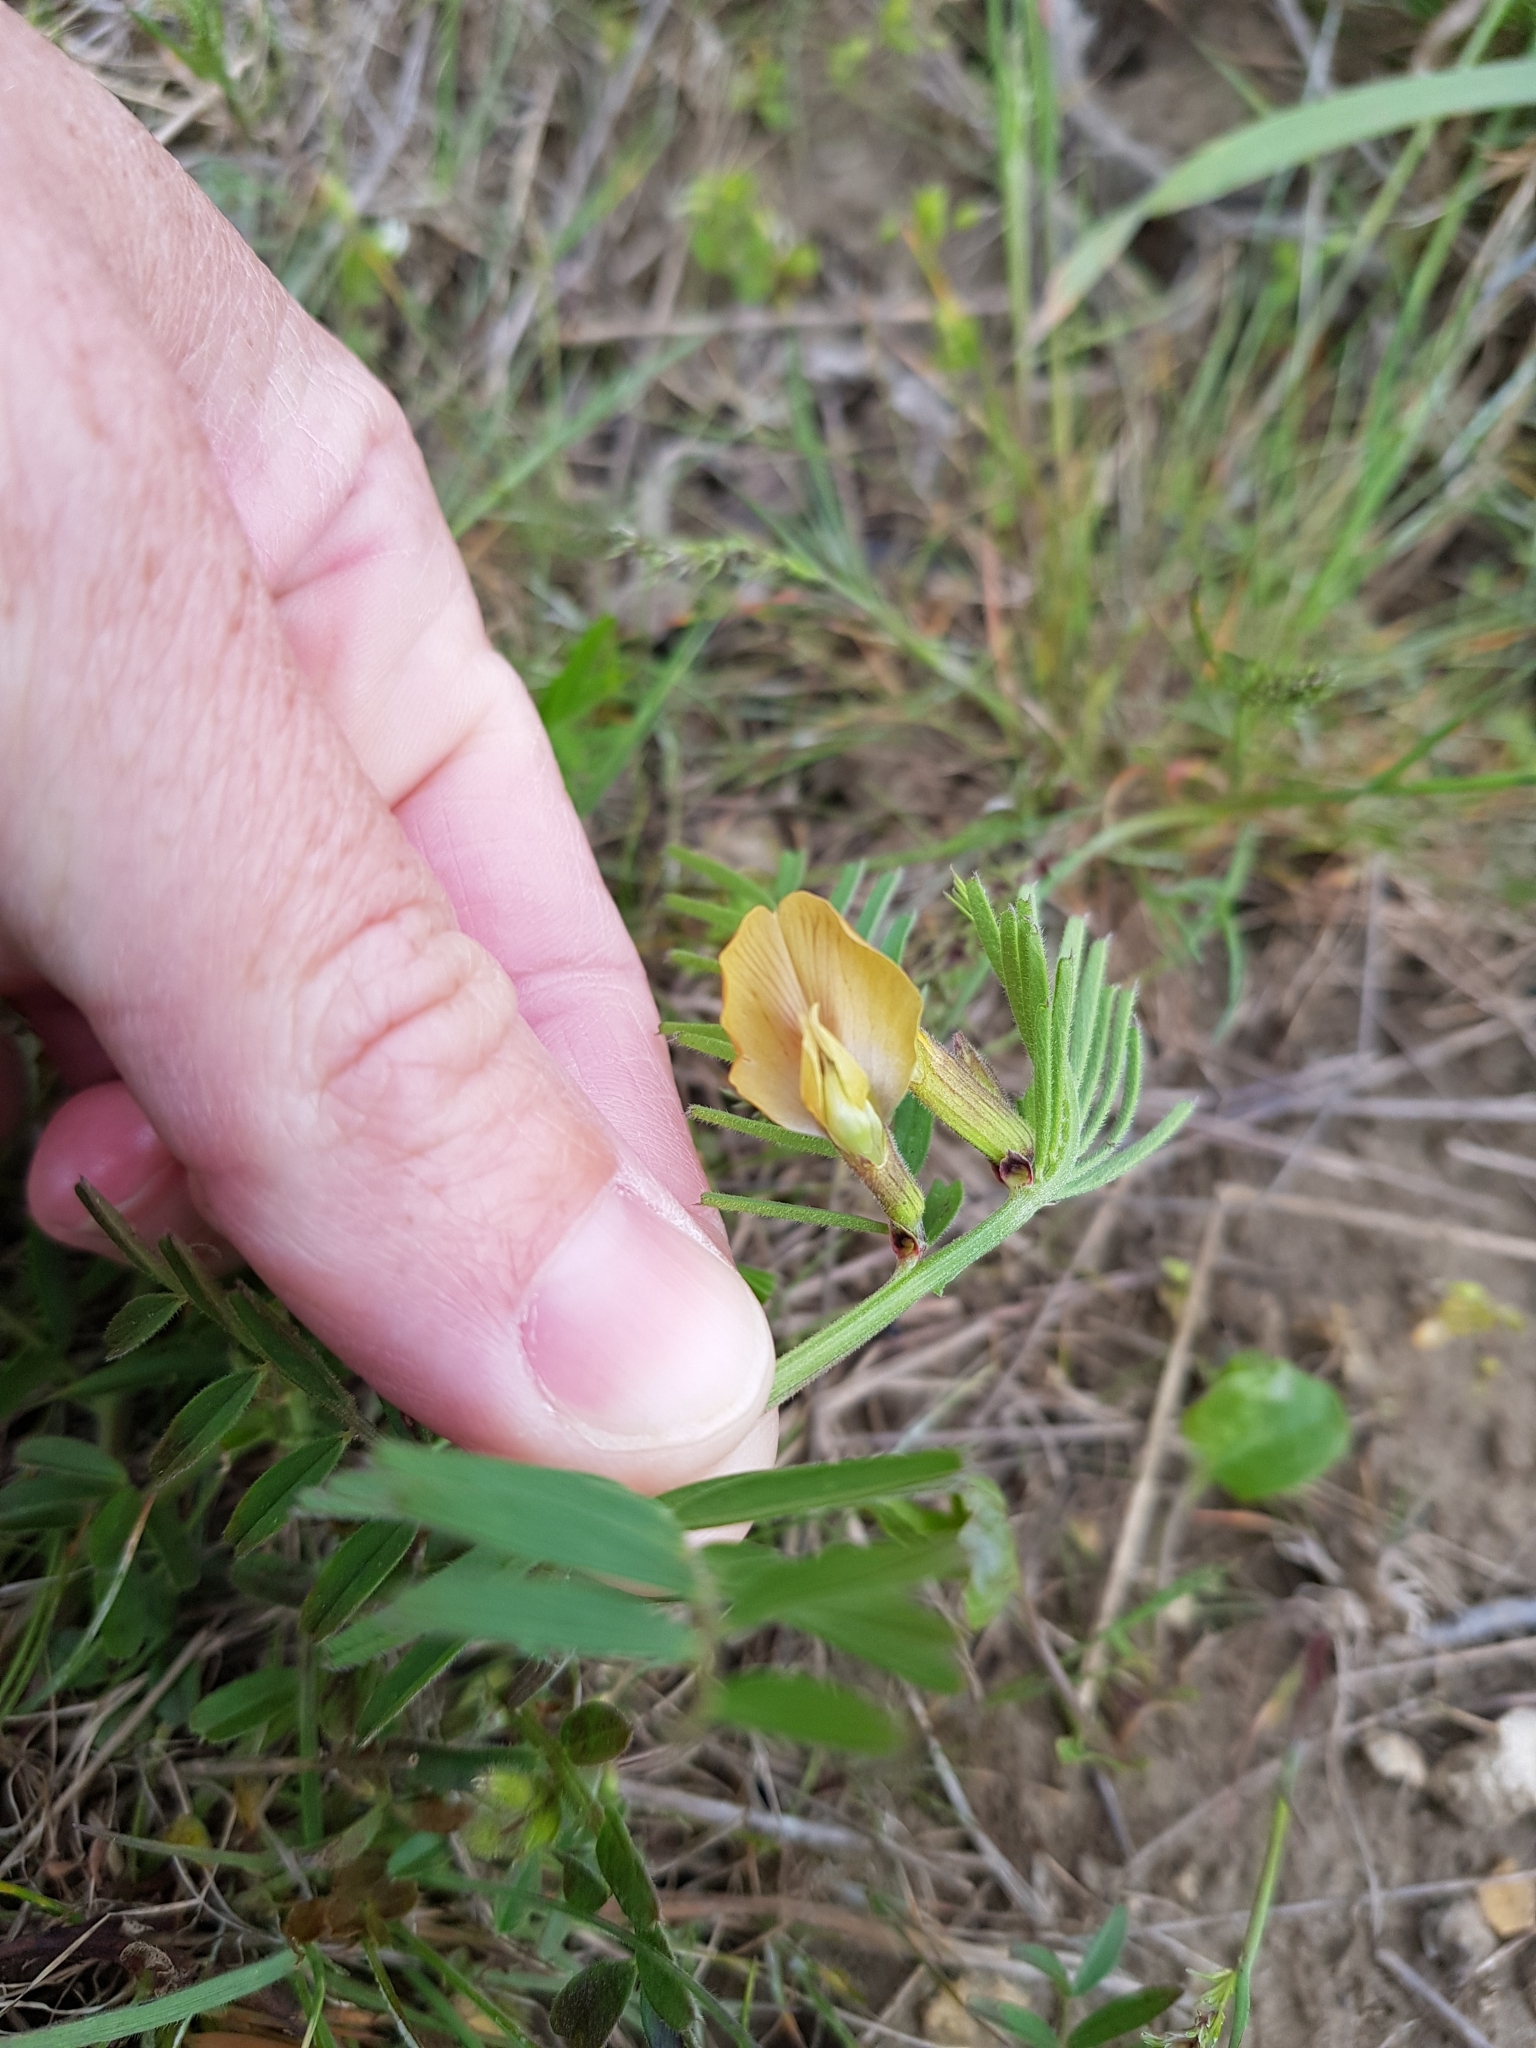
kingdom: Plantae
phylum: Tracheophyta
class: Magnoliopsida
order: Fabales
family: Fabaceae
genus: Vicia
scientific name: Vicia biebersteinii
